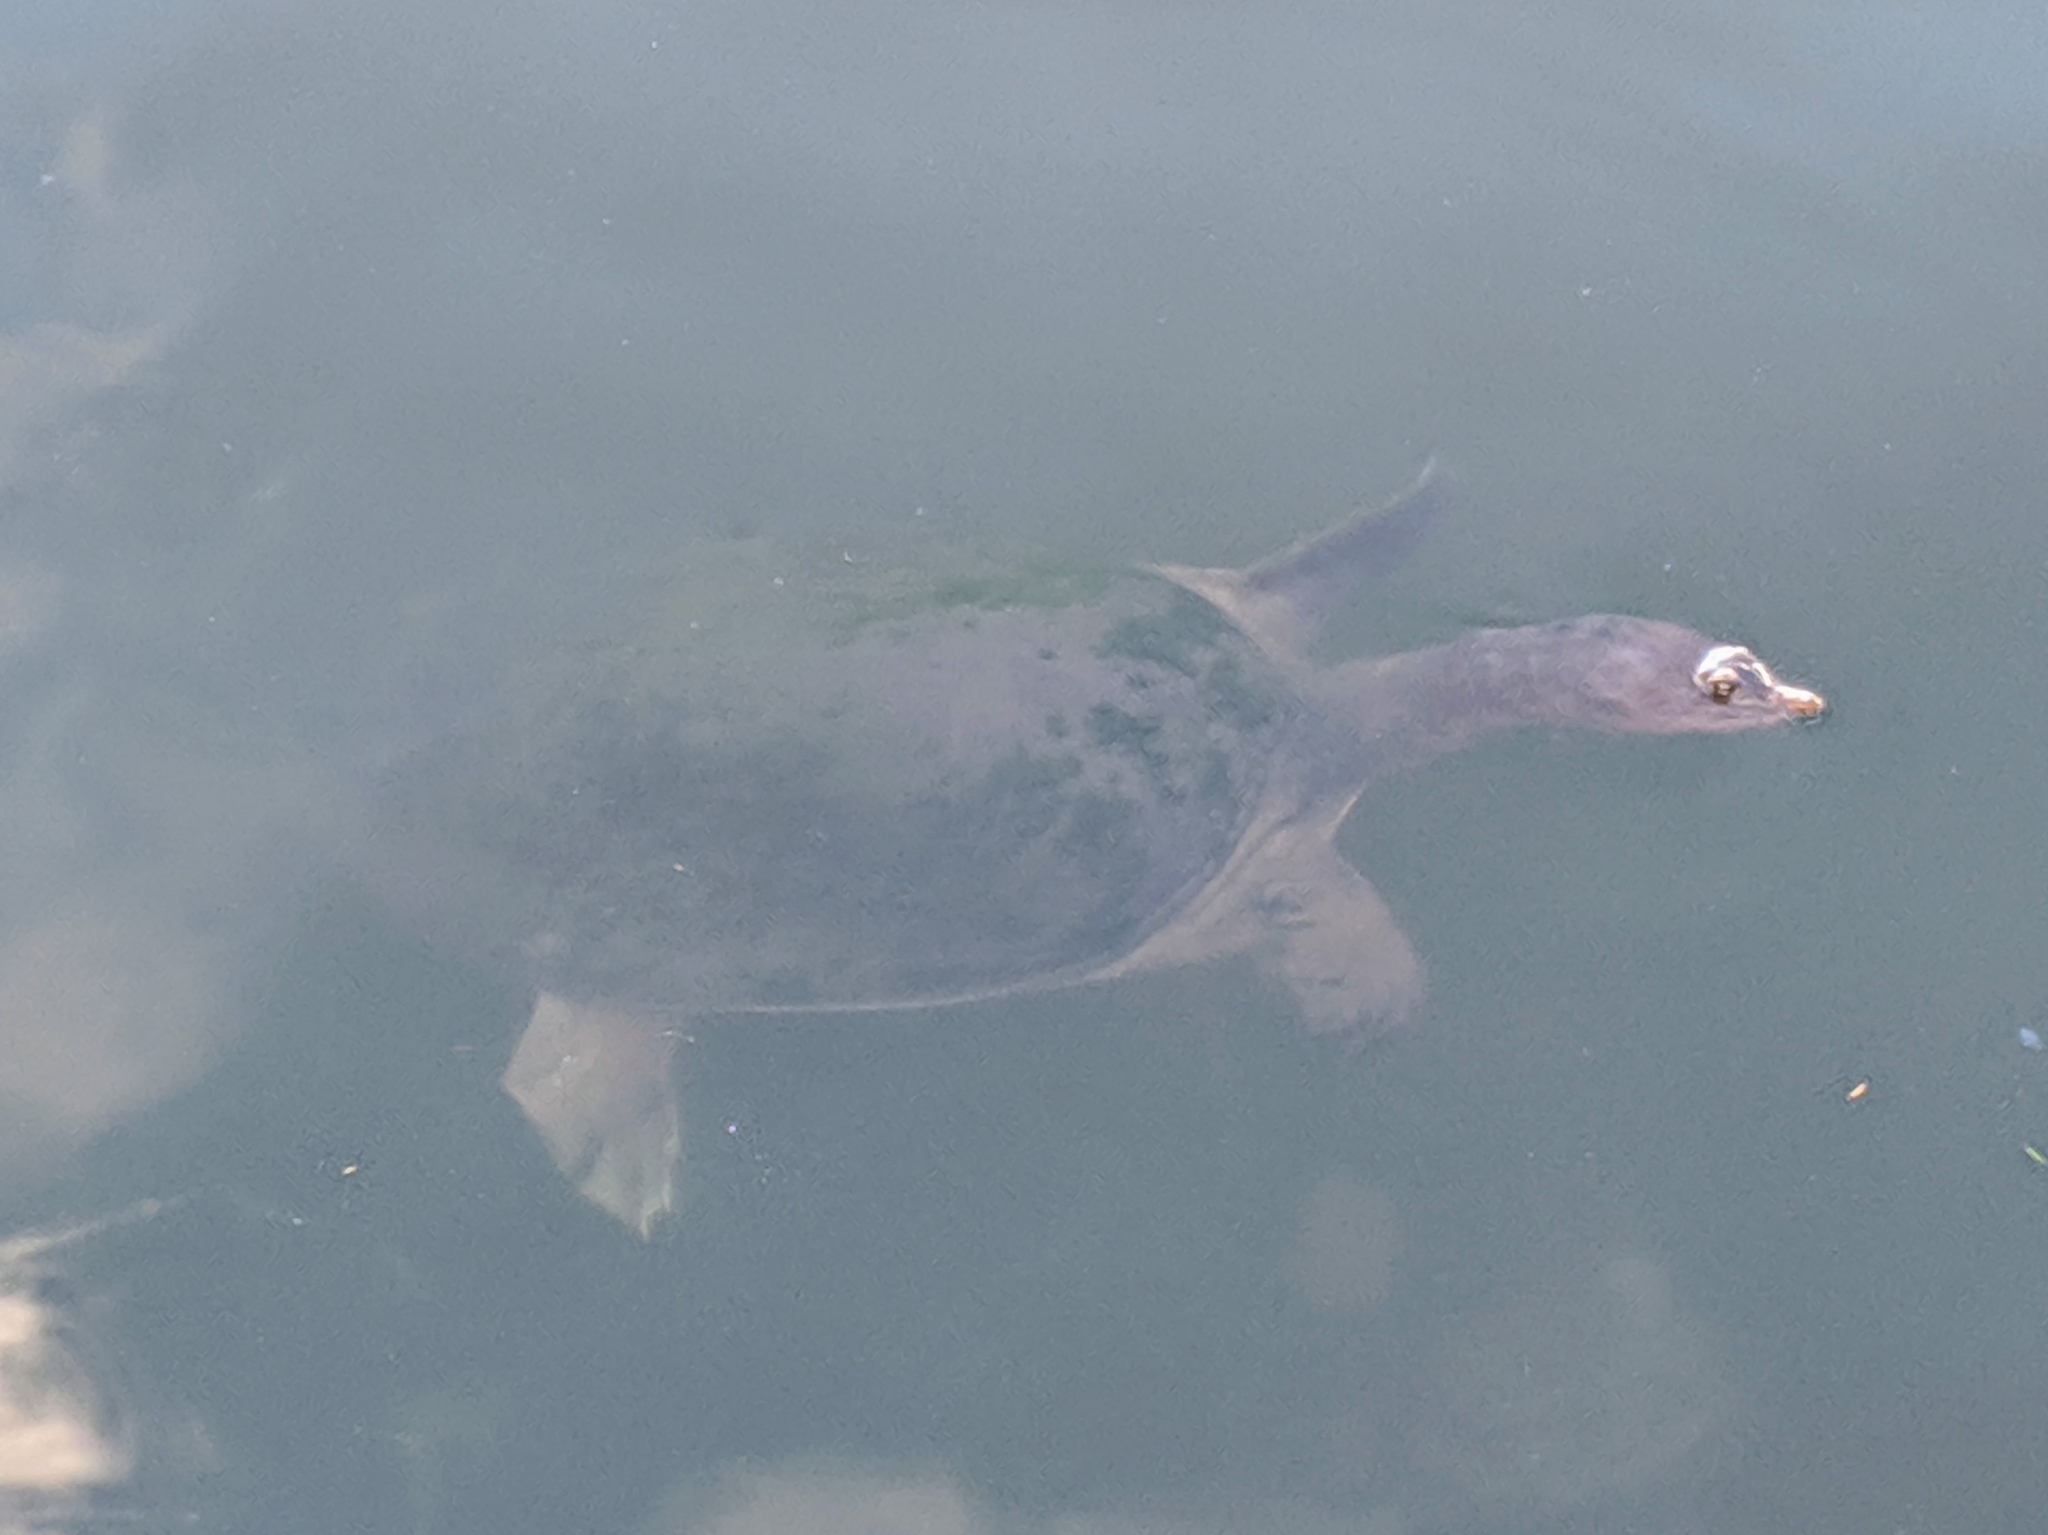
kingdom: Animalia
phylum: Chordata
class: Testudines
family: Trionychidae
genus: Apalone
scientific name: Apalone ferox
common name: Florida softshell turtle
